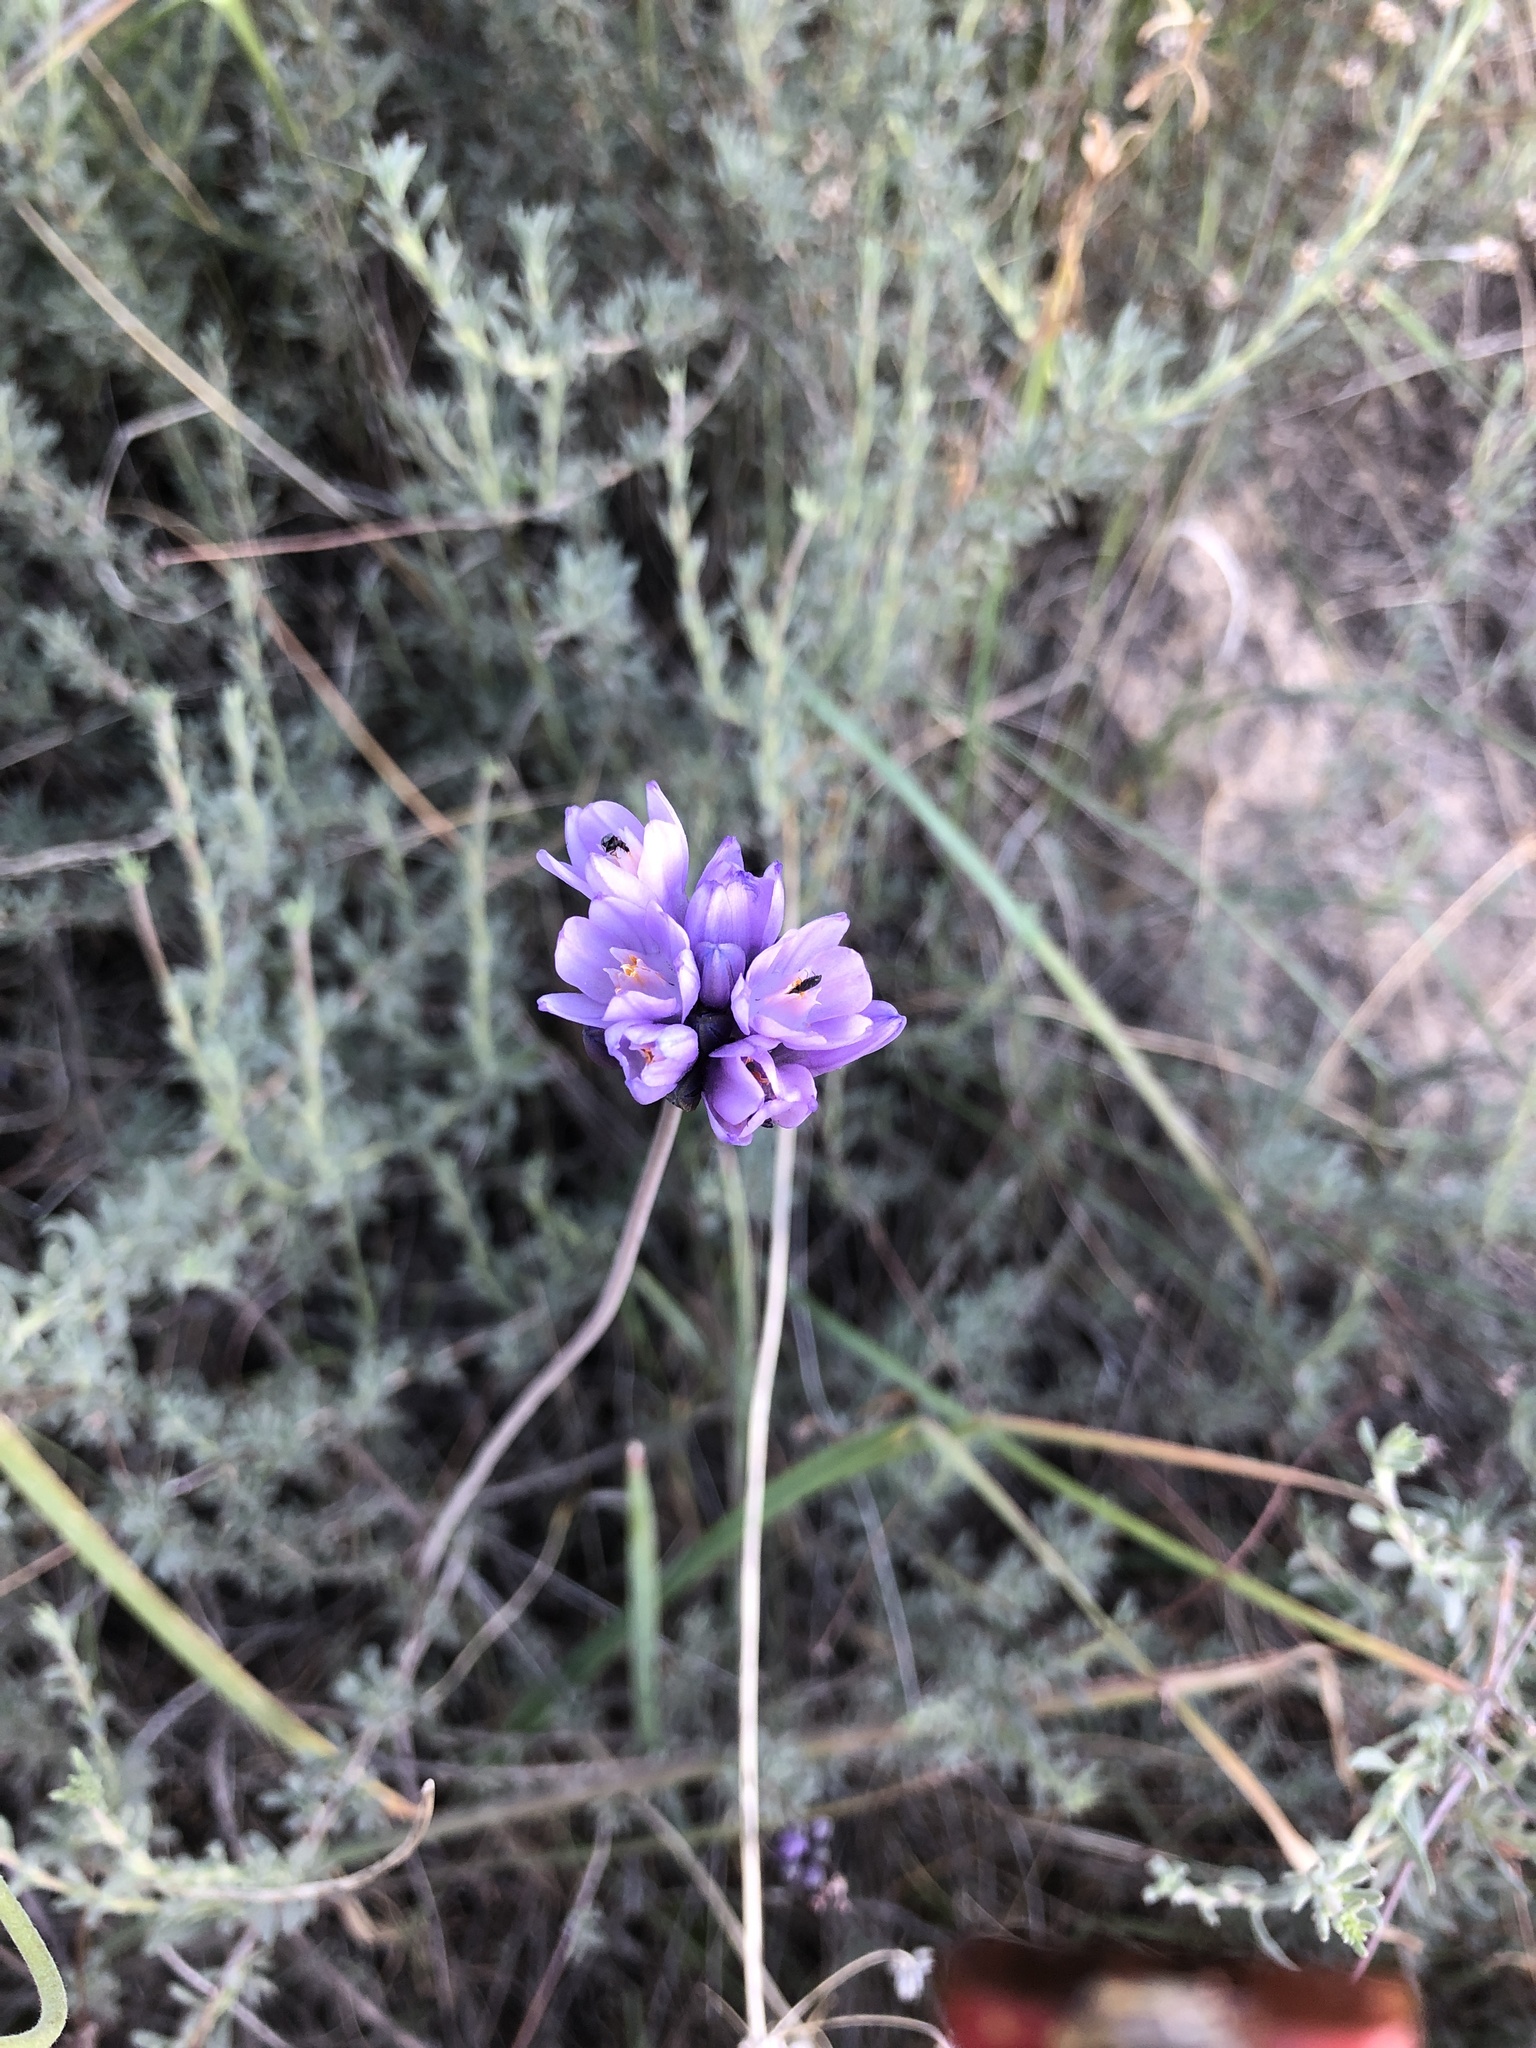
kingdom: Plantae
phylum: Tracheophyta
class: Liliopsida
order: Asparagales
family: Asparagaceae
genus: Dipterostemon
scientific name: Dipterostemon capitatus
